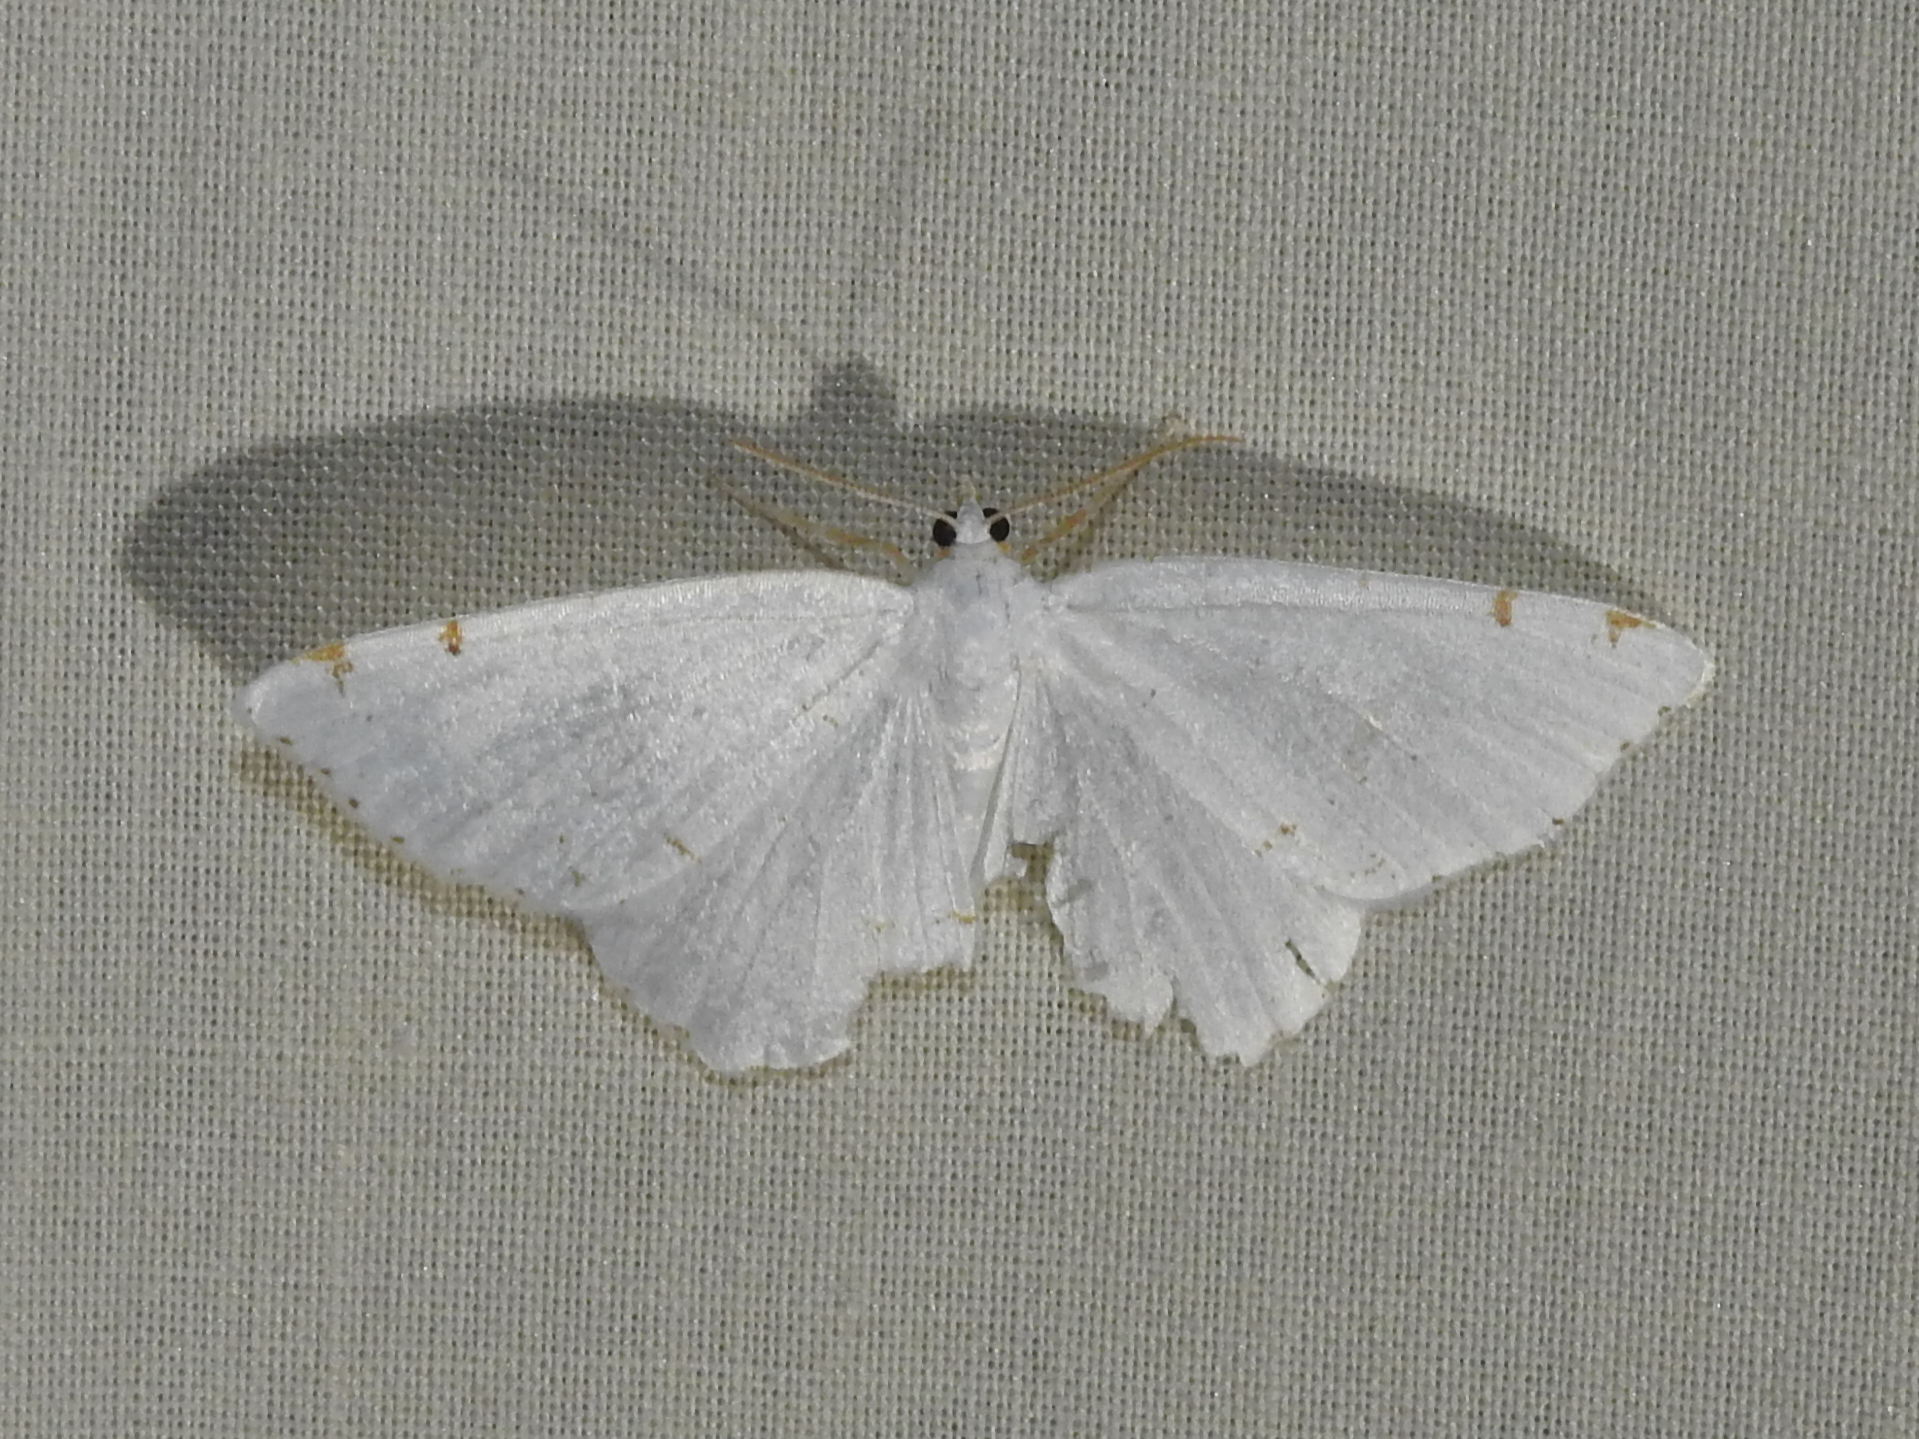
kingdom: Animalia
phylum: Arthropoda
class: Insecta
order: Lepidoptera
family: Geometridae
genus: Macaria
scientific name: Macaria pustularia
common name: Lesser maple spanworm moth
